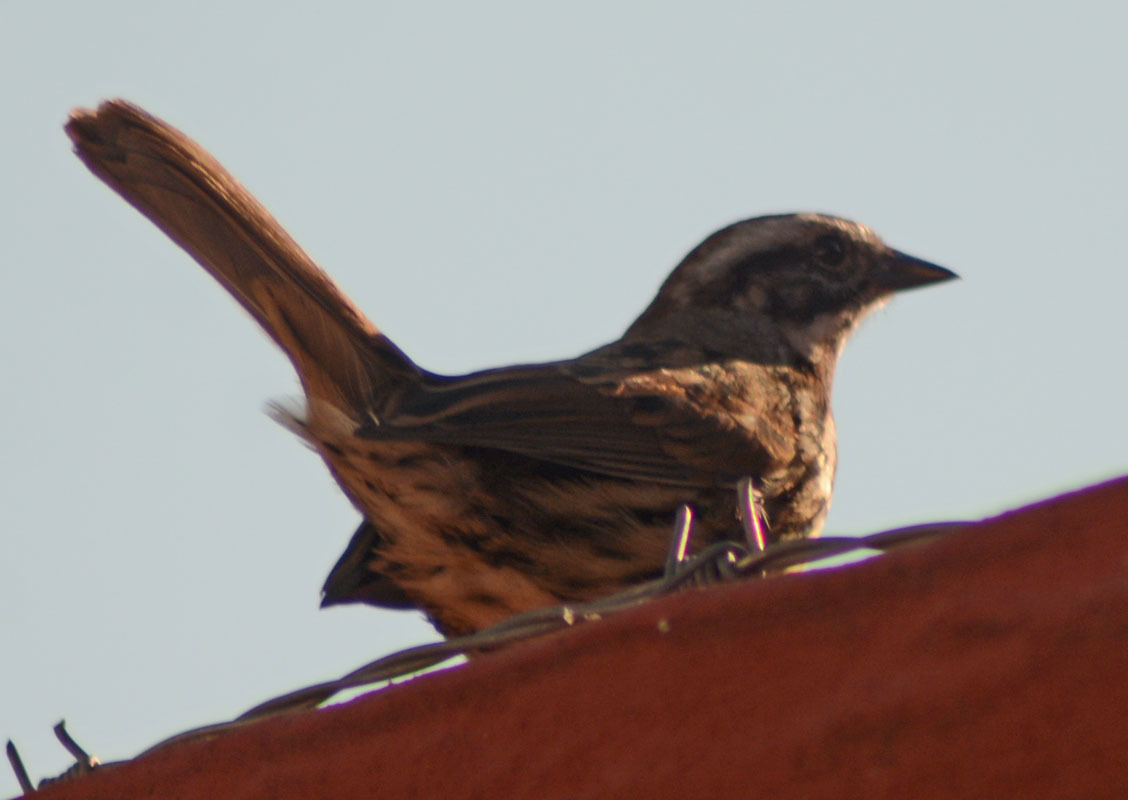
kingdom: Animalia
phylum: Chordata
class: Aves
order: Passeriformes
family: Passerellidae
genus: Melospiza
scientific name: Melospiza melodia
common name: Song sparrow
